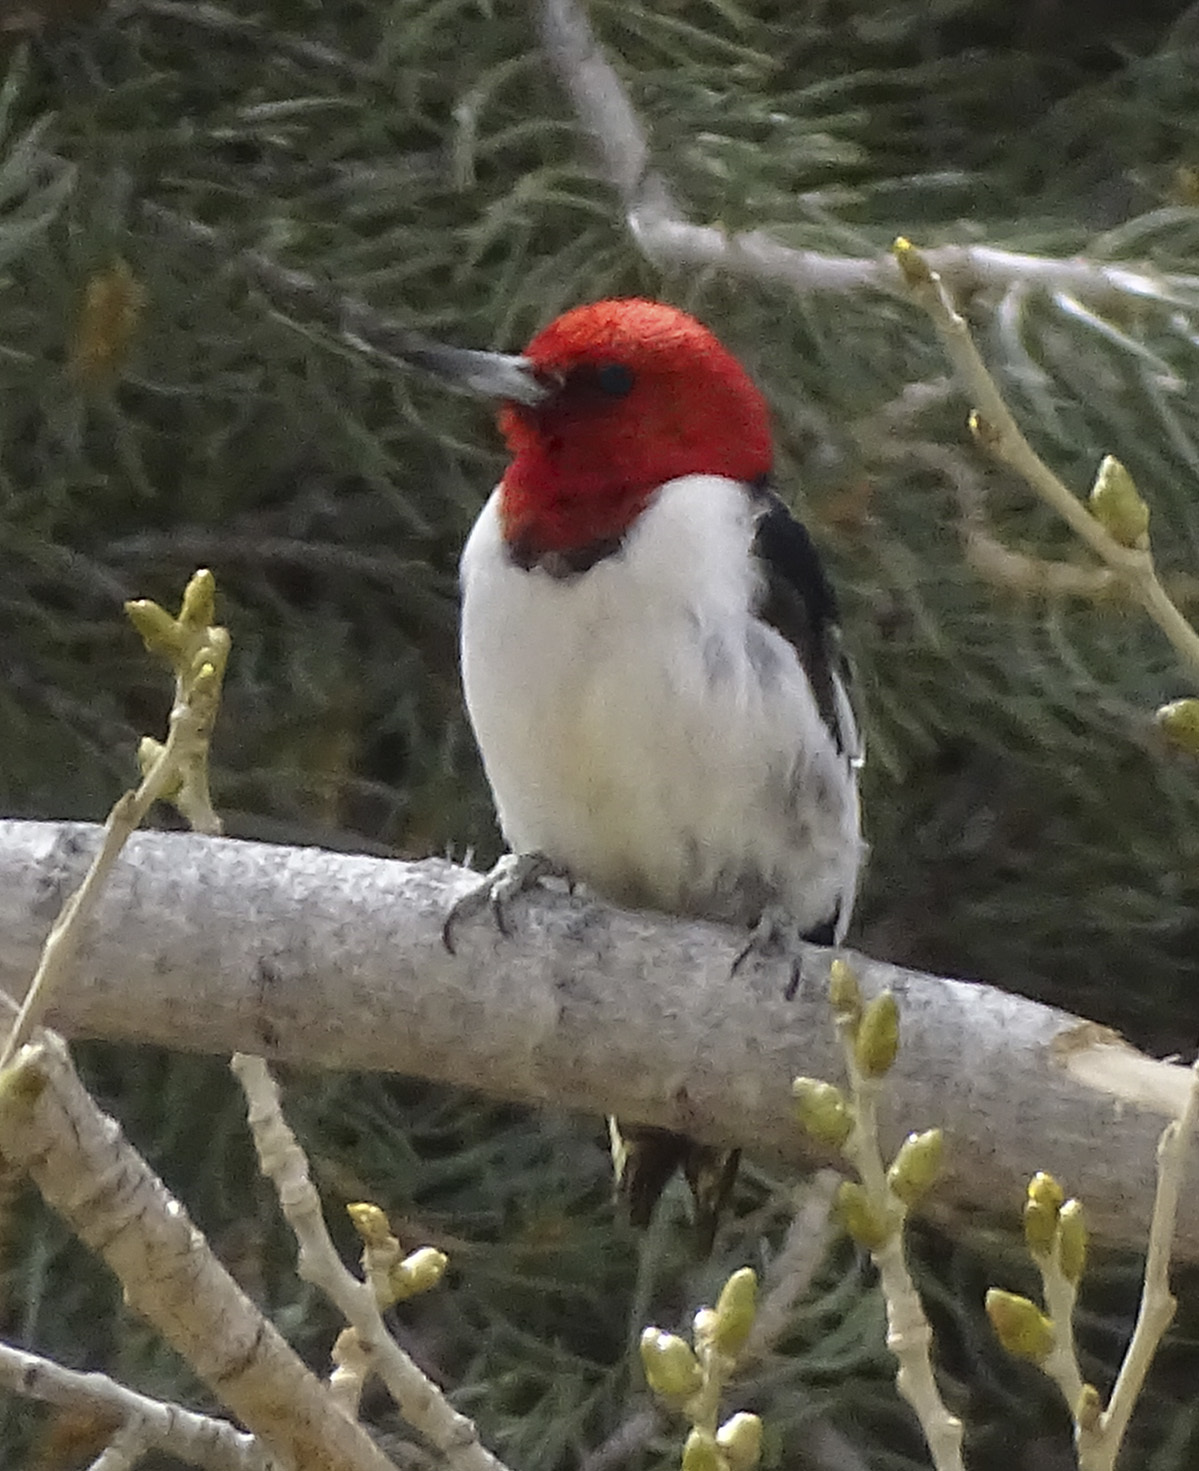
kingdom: Animalia
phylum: Chordata
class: Aves
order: Piciformes
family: Picidae
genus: Melanerpes
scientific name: Melanerpes erythrocephalus
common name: Red-headed woodpecker
